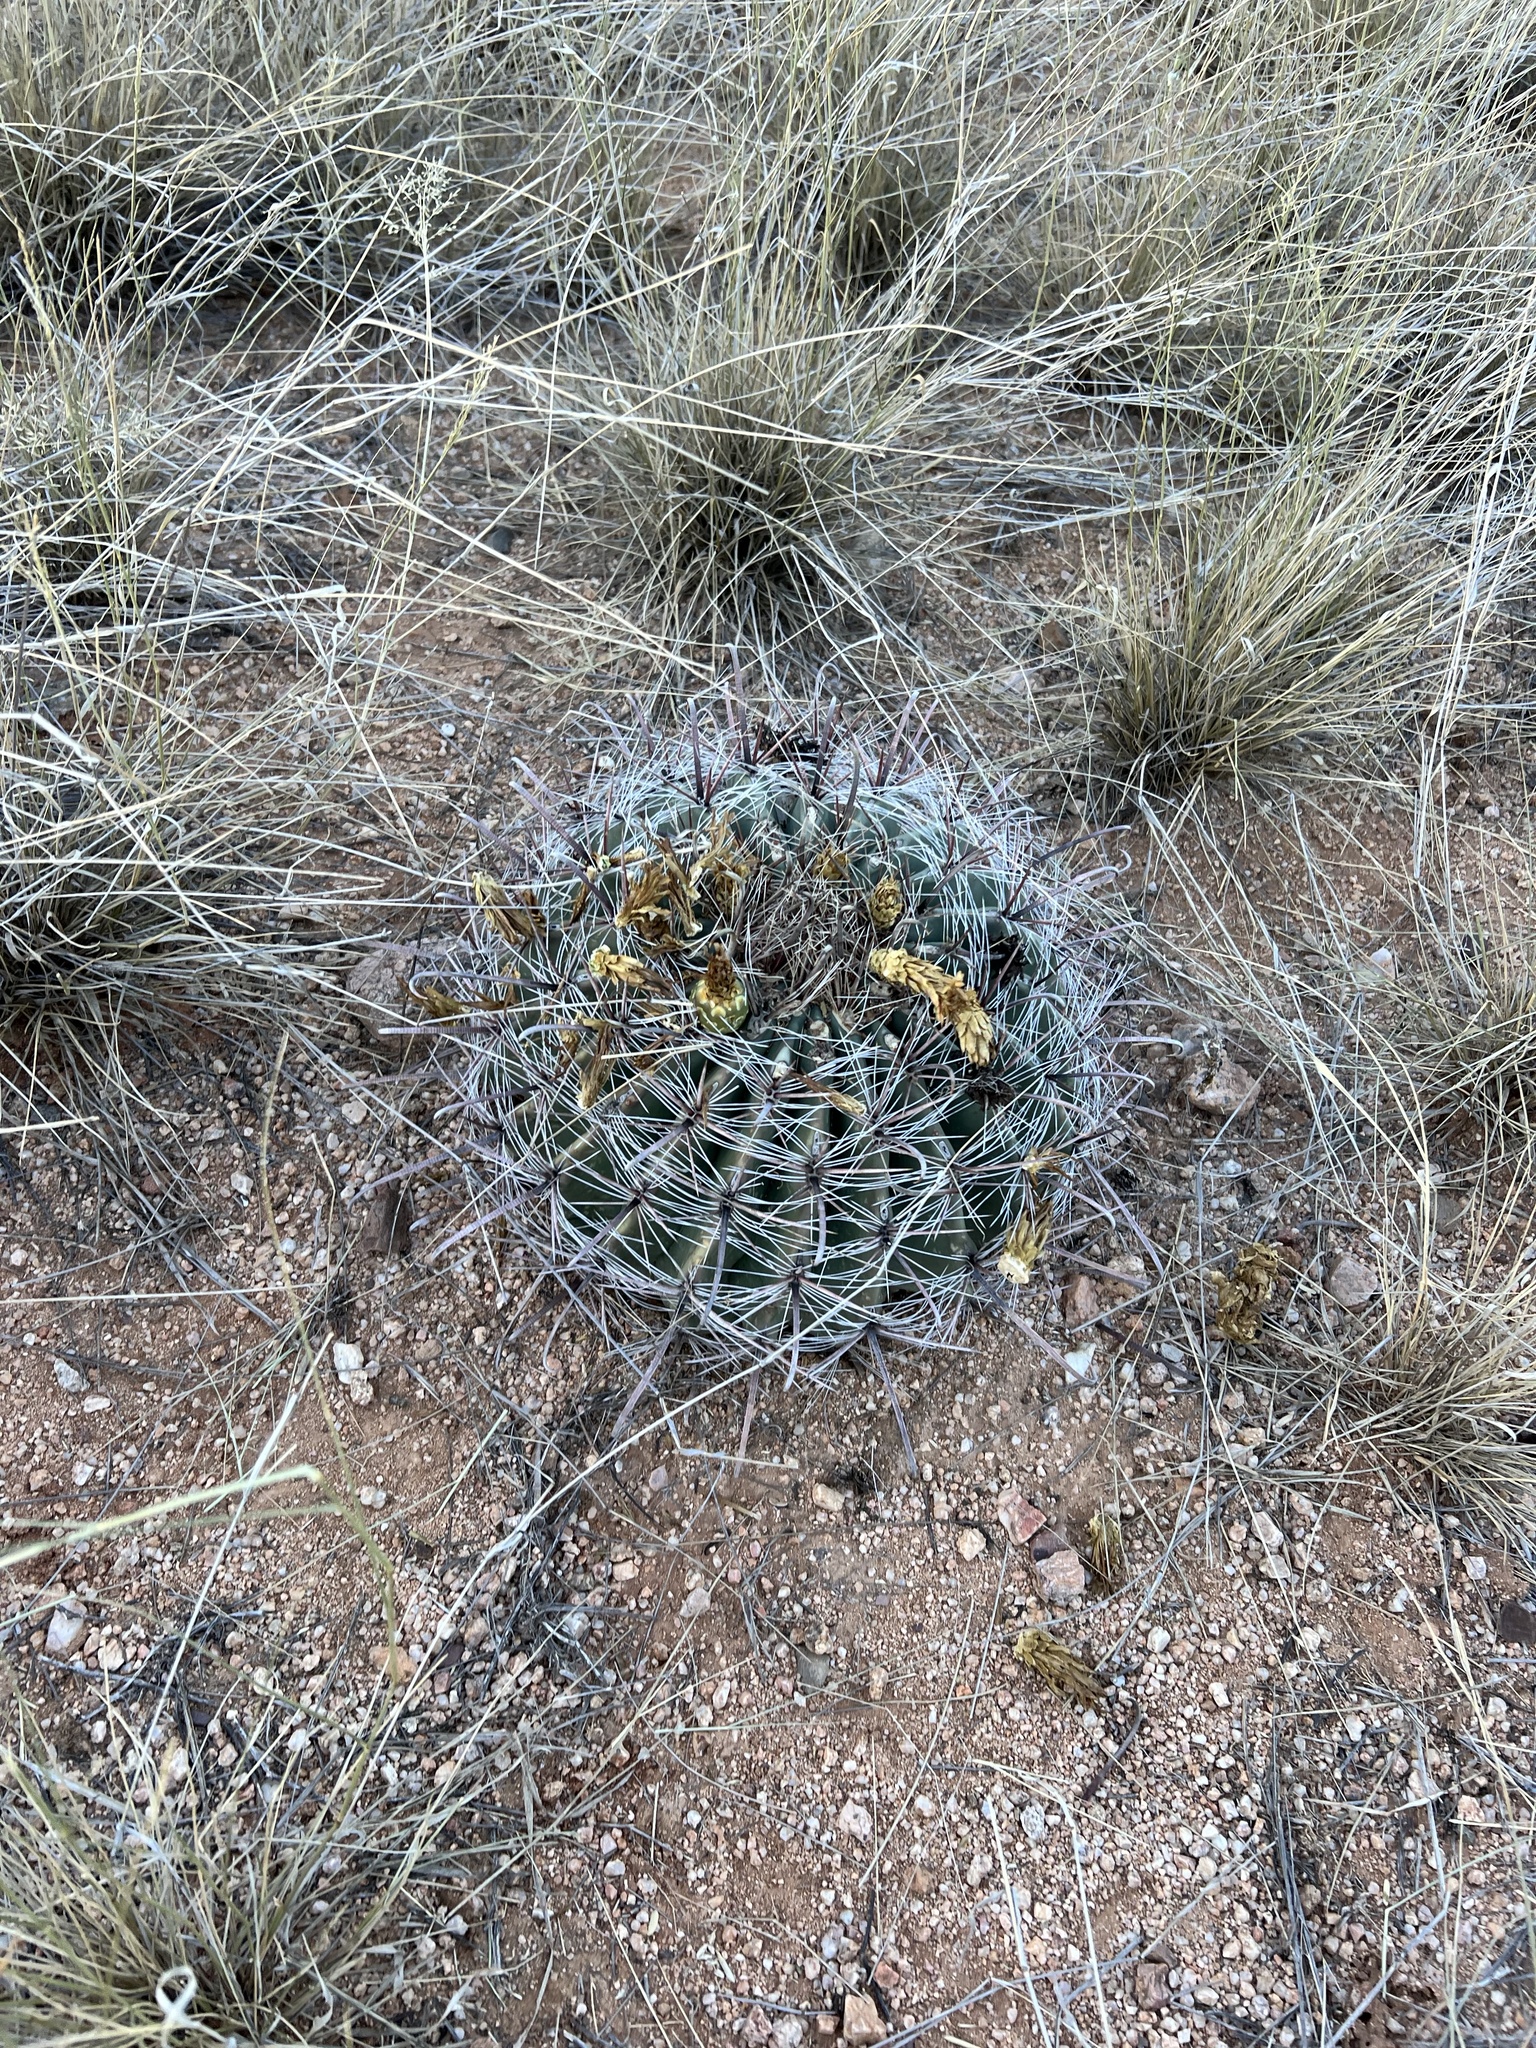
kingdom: Plantae
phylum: Tracheophyta
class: Magnoliopsida
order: Caryophyllales
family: Cactaceae
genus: Ferocactus
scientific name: Ferocactus wislizeni
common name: Candy barrel cactus
